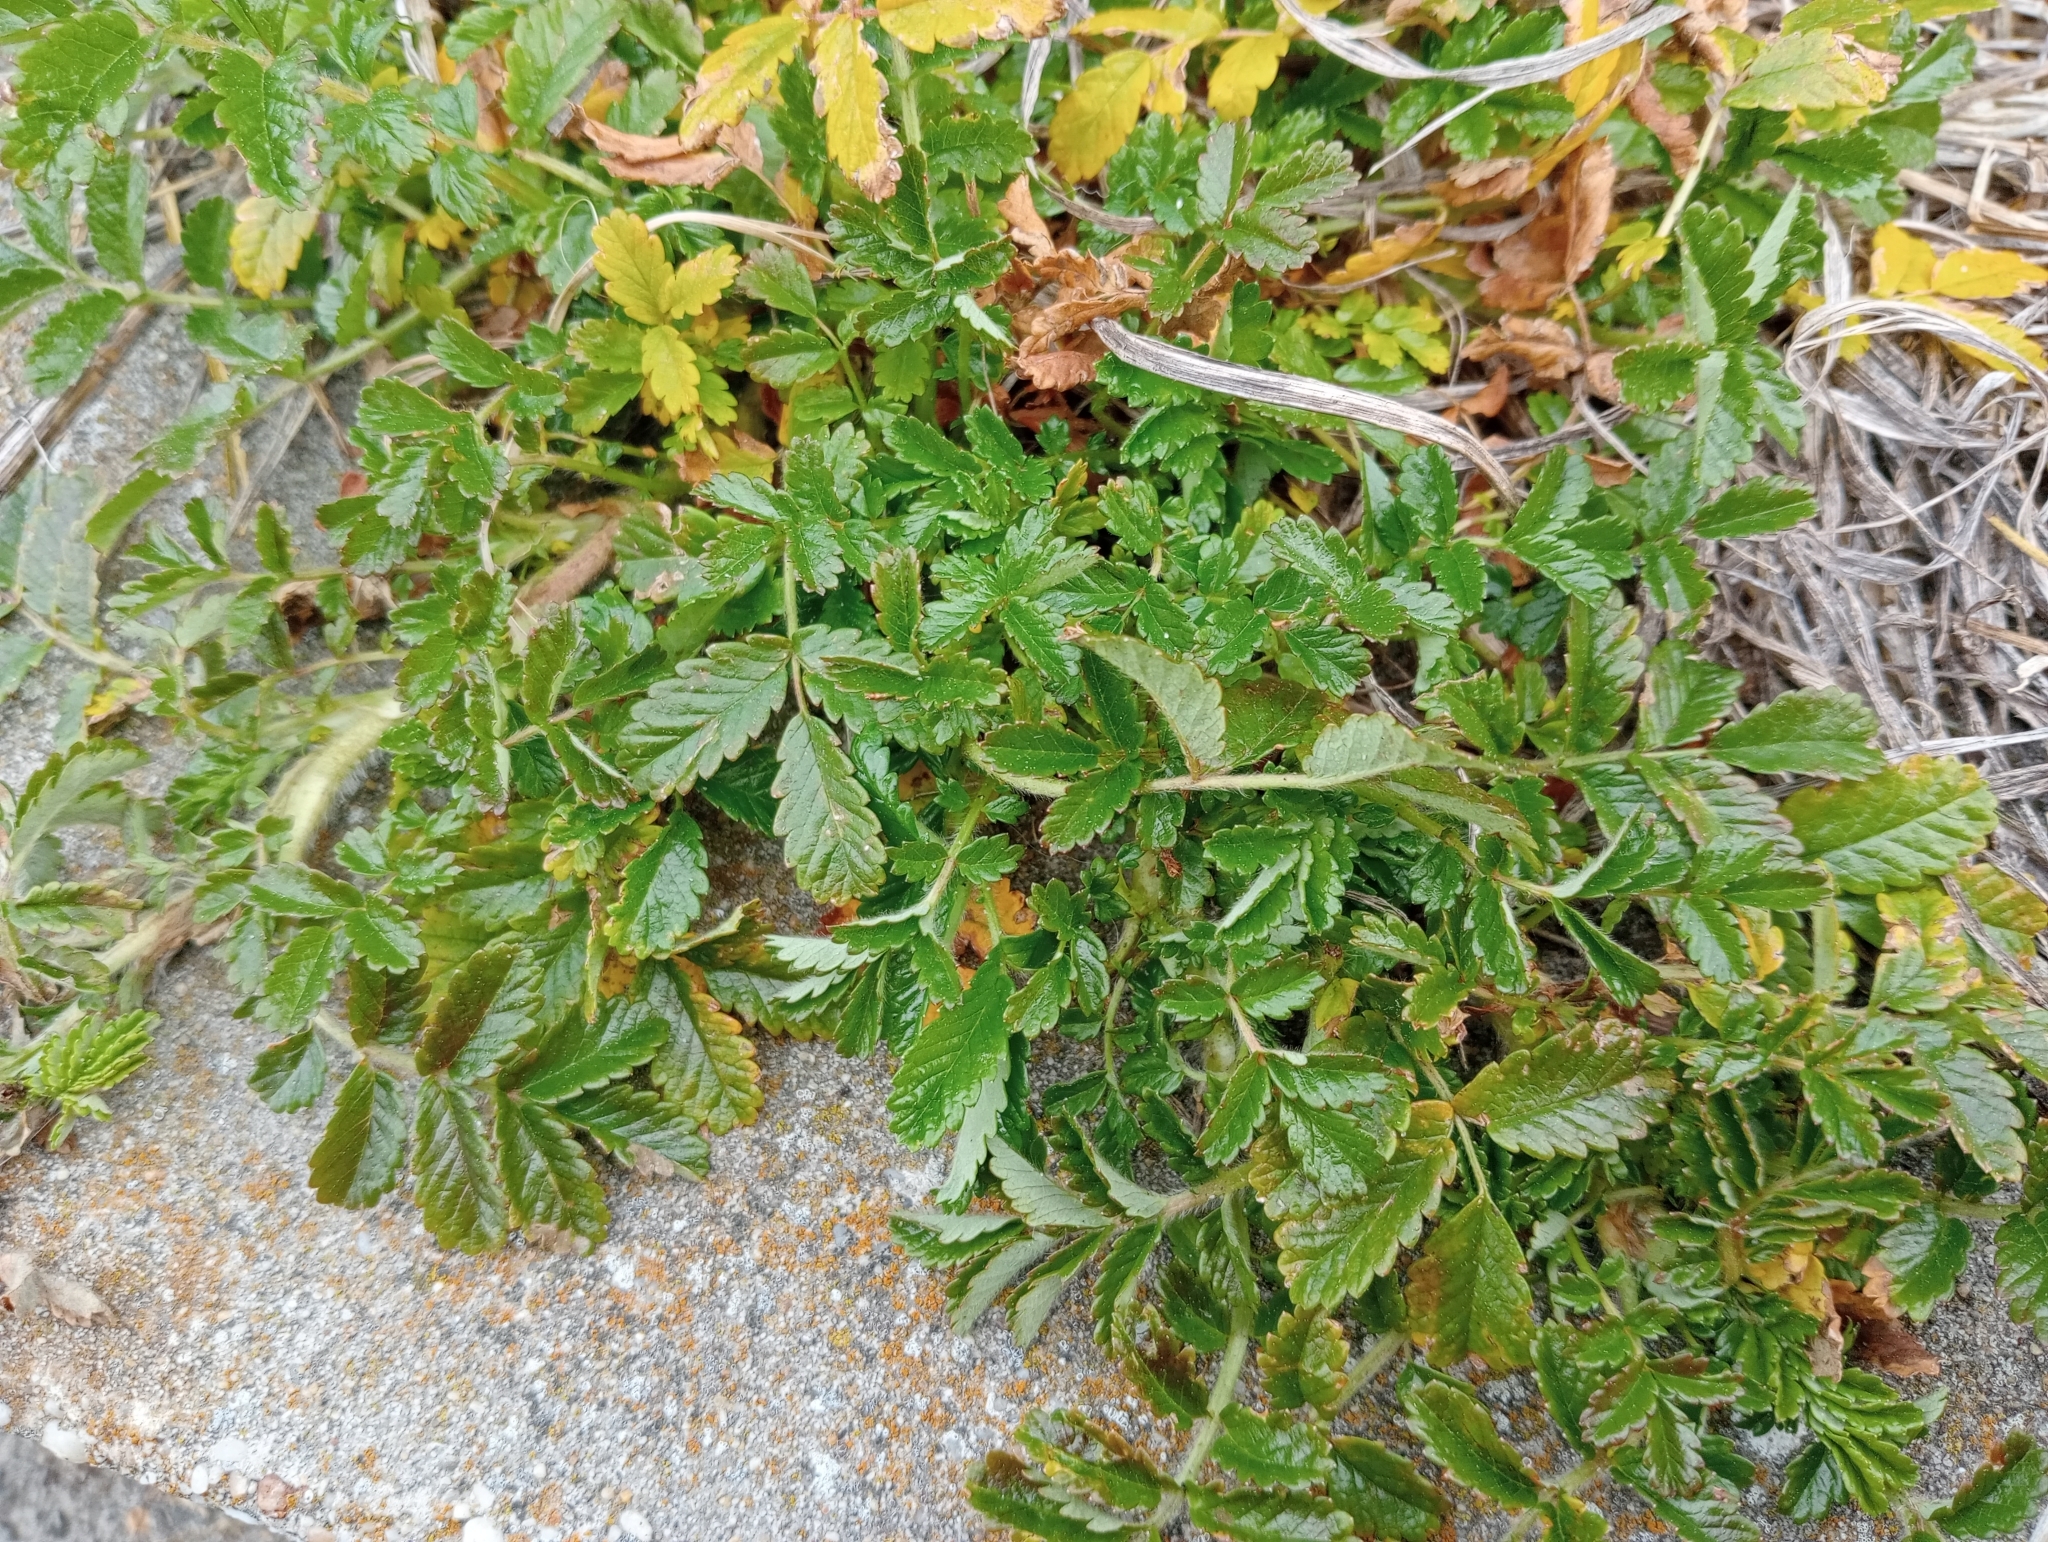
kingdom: Plantae
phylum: Tracheophyta
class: Magnoliopsida
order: Rosales
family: Rosaceae
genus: Acaena
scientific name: Acaena pallida
